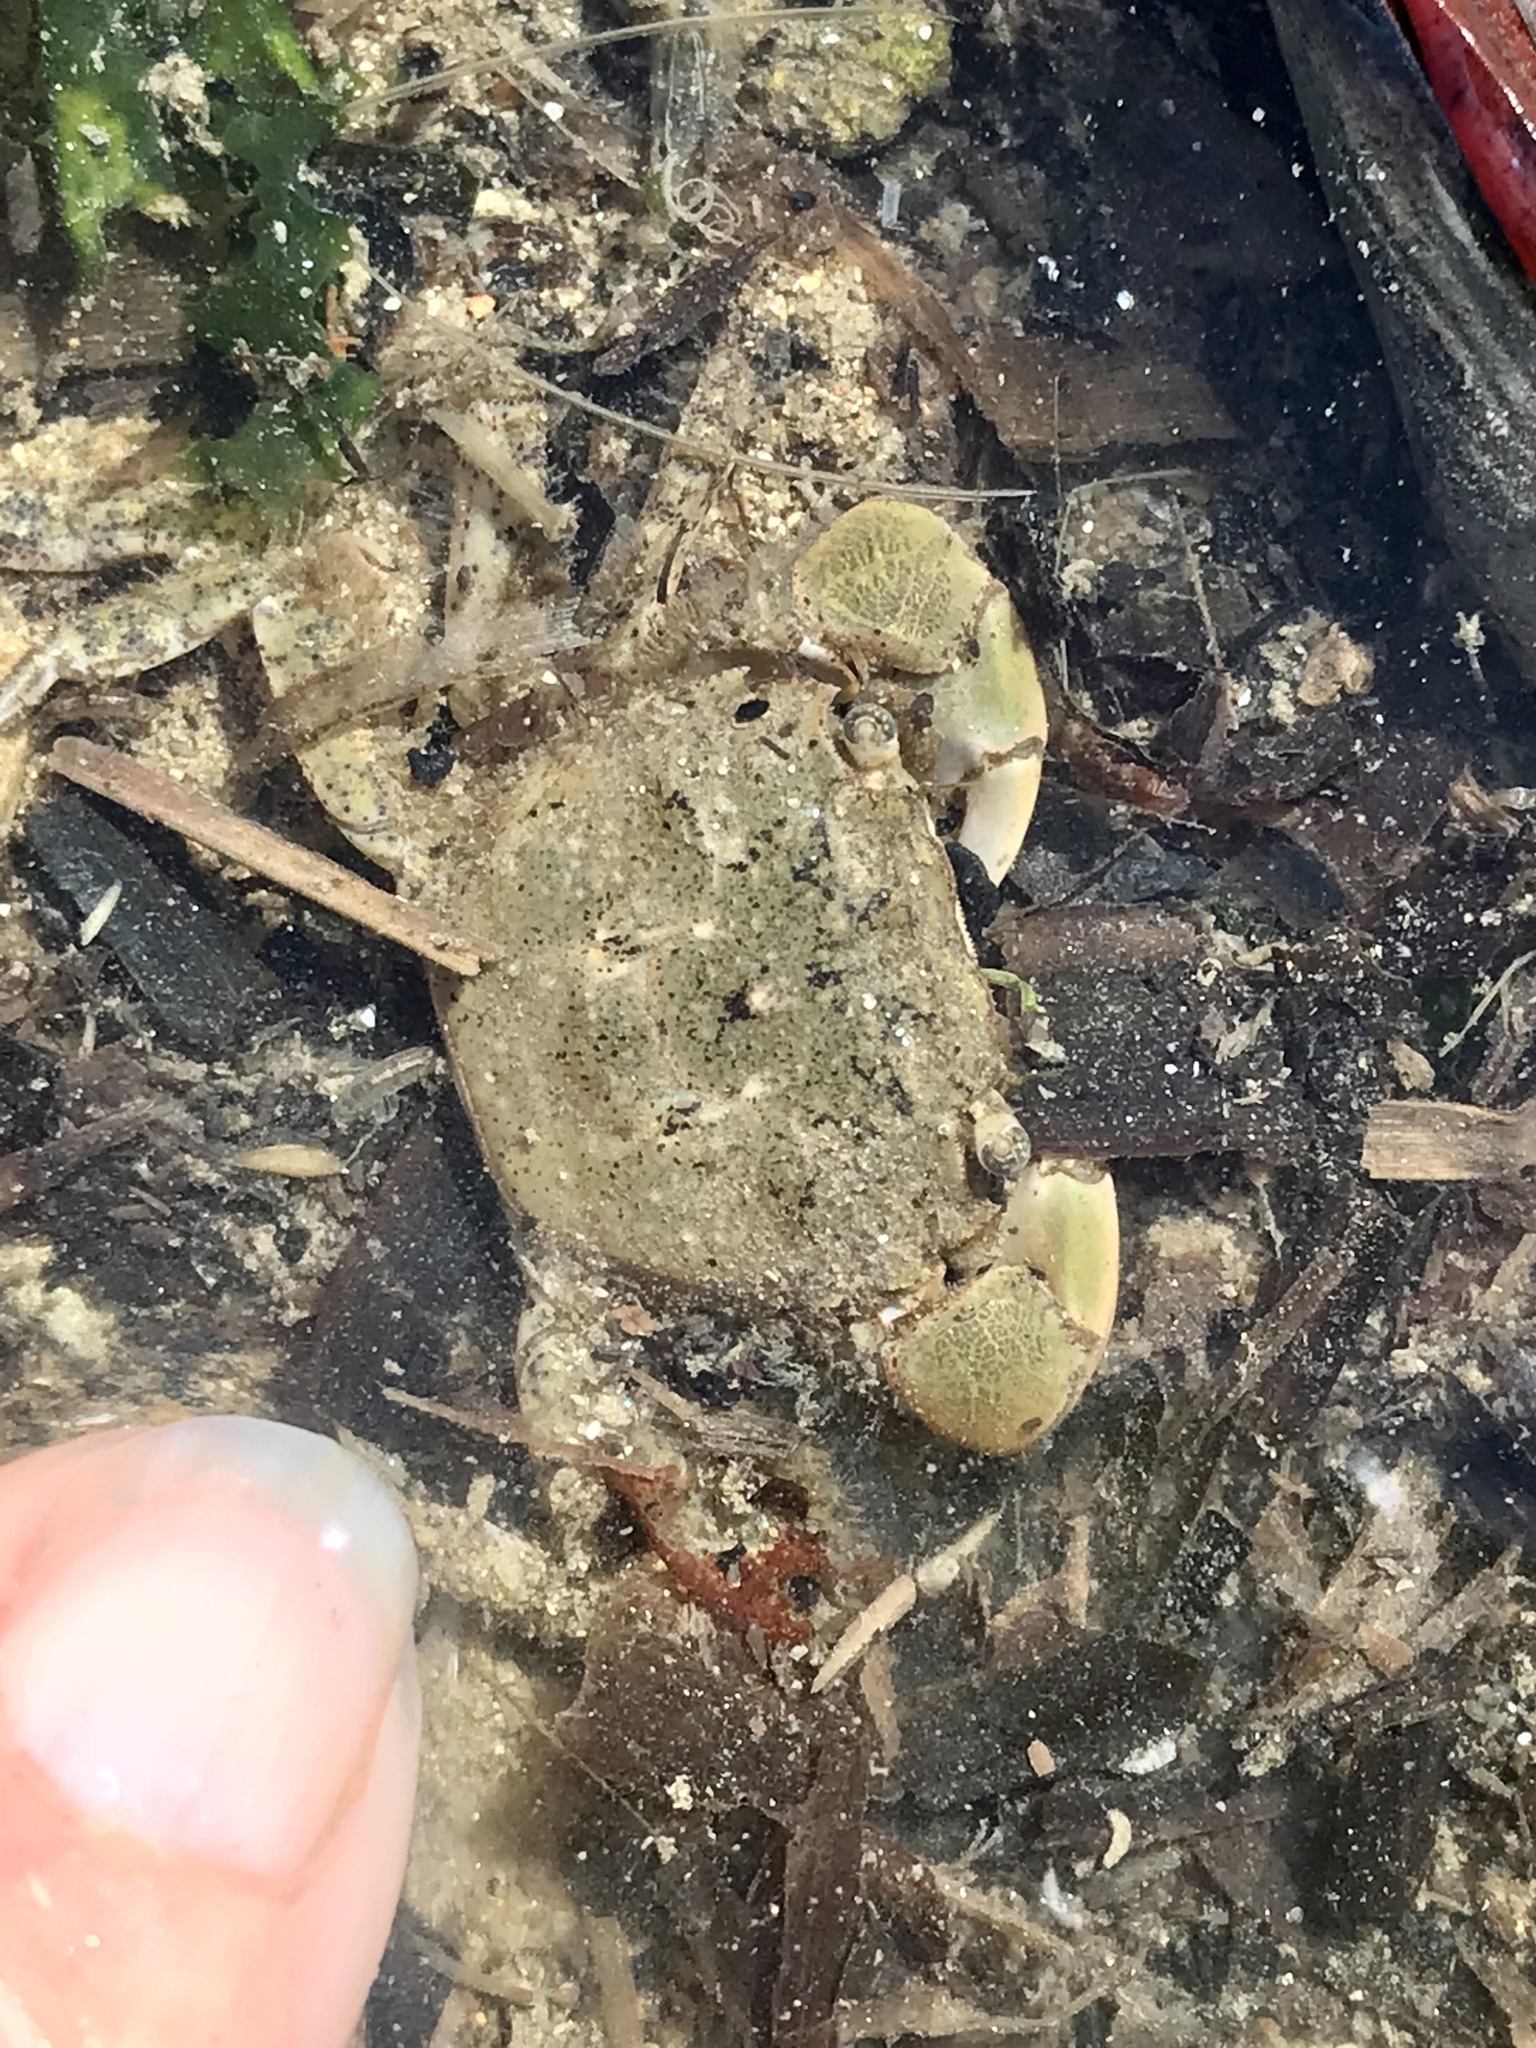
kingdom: Animalia
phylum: Arthropoda
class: Malacostraca
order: Decapoda
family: Varunidae
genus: Hemigrapsus
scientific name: Hemigrapsus oregonensis
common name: Yellow shore crab
